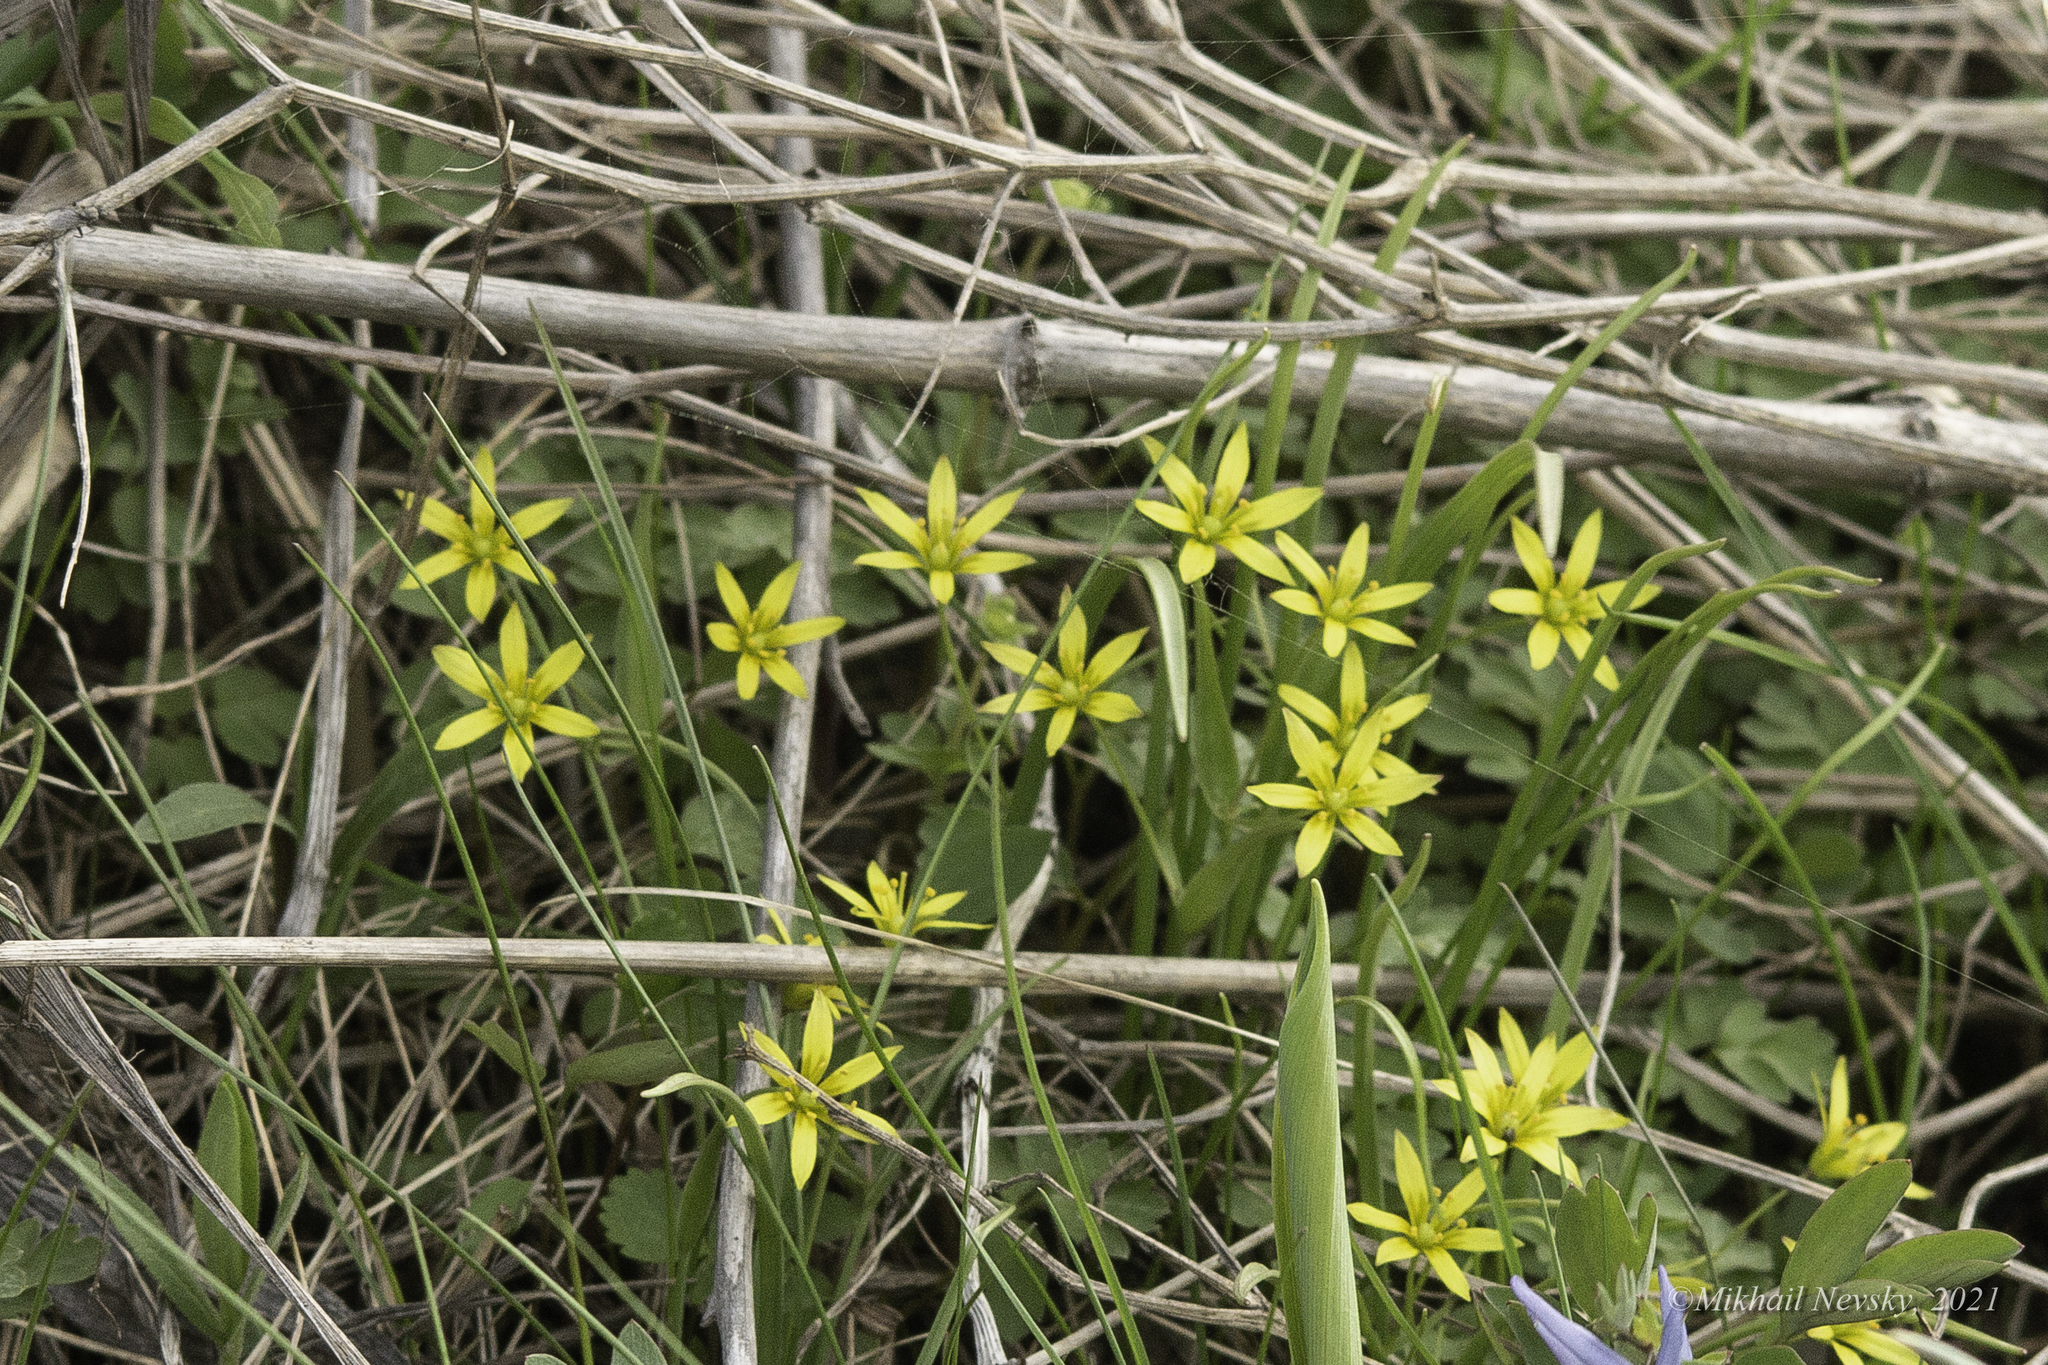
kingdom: Plantae
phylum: Tracheophyta
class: Liliopsida
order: Liliales
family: Liliaceae
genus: Gagea
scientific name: Gagea nakaiana
